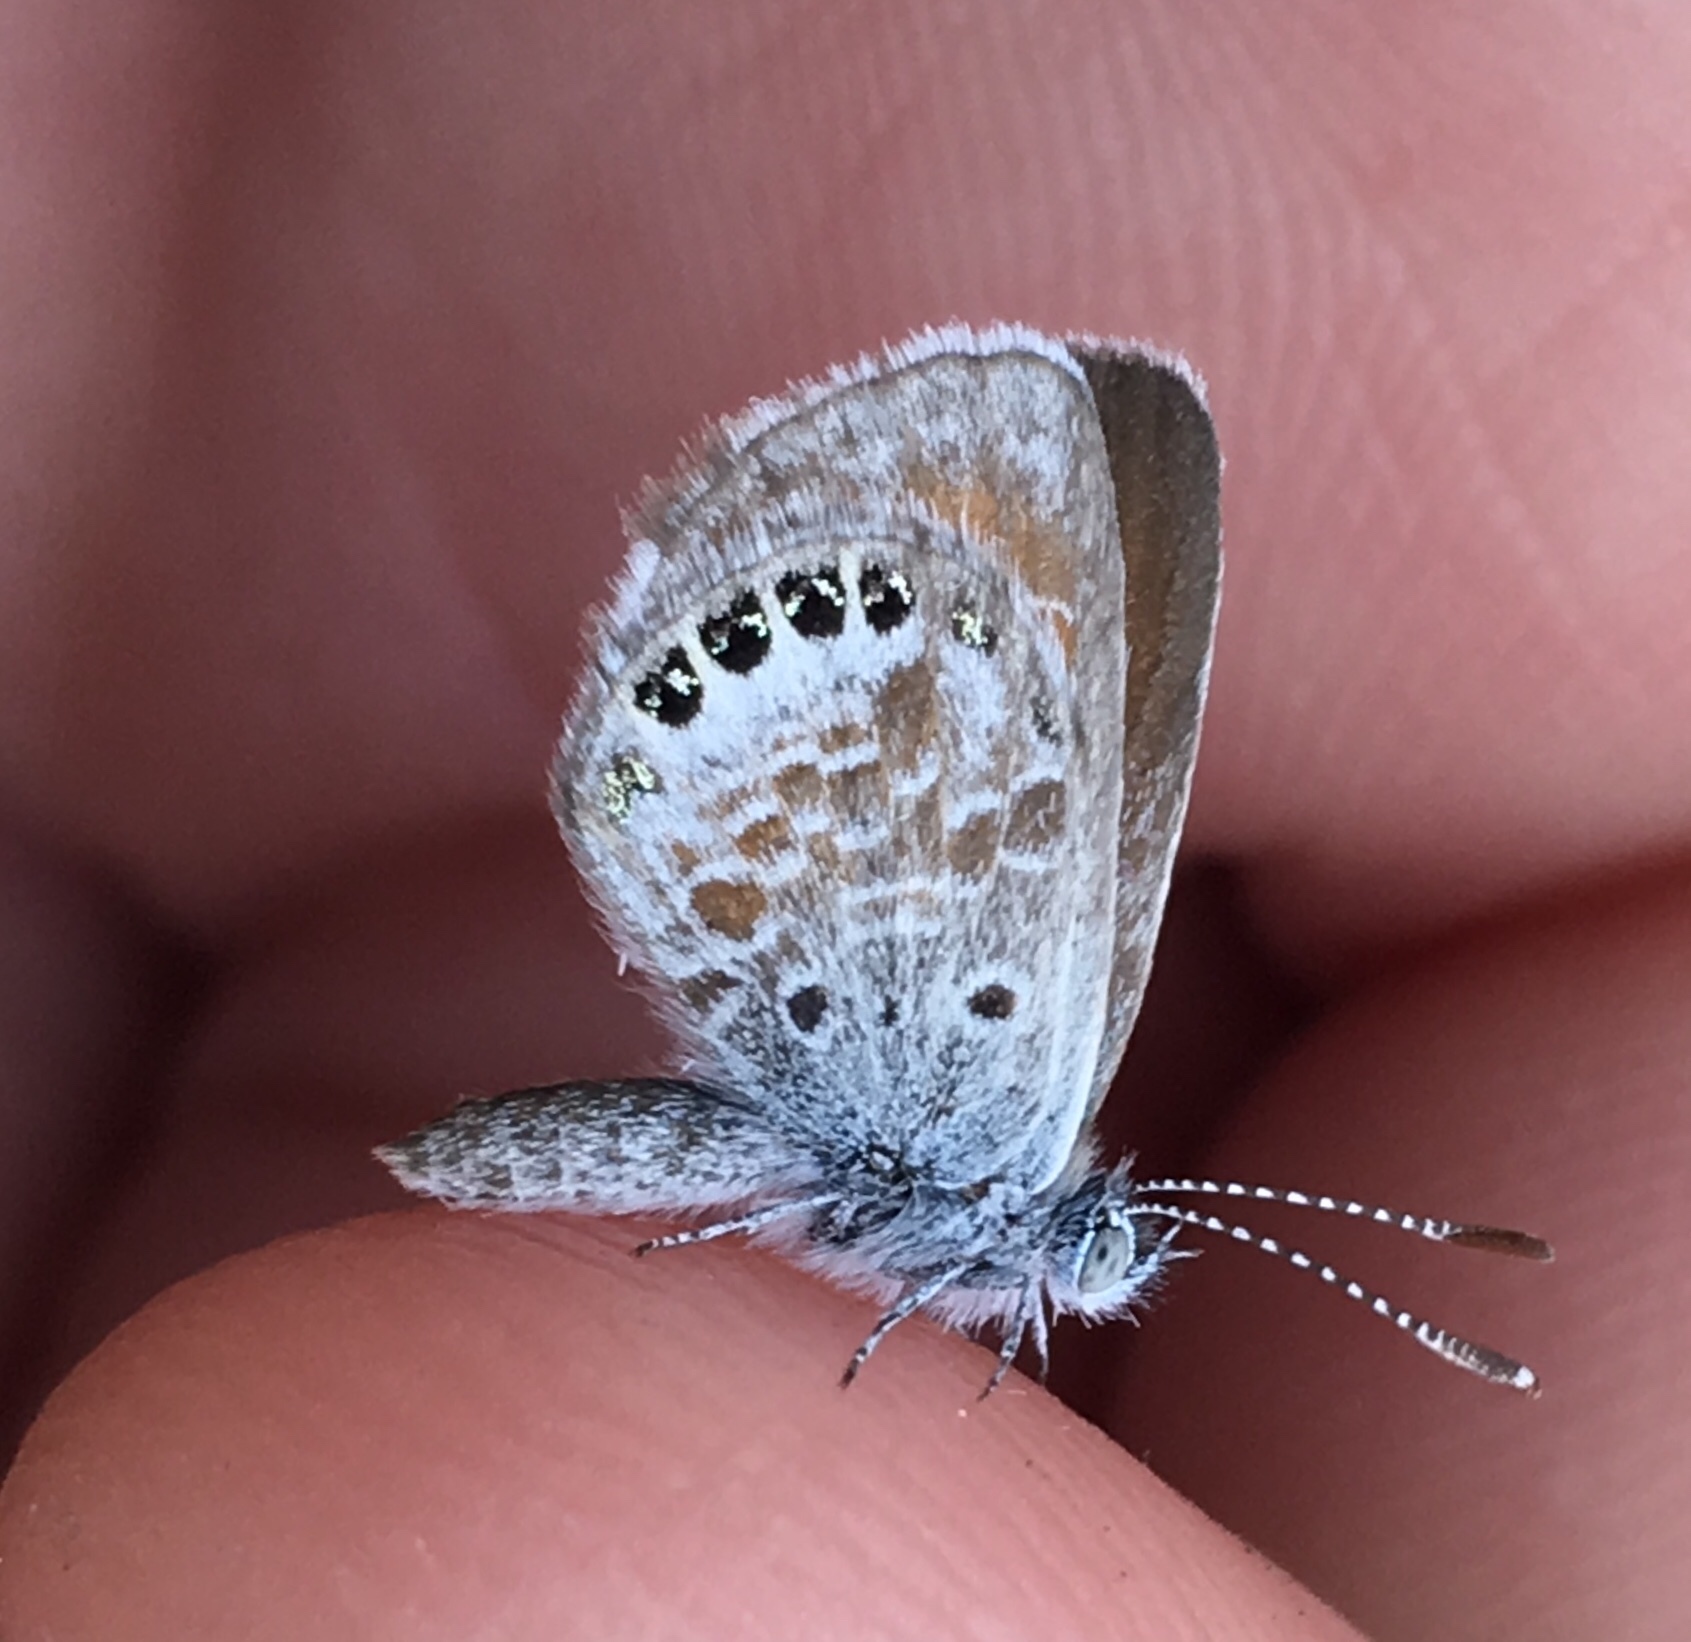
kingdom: Animalia
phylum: Arthropoda
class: Insecta
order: Lepidoptera
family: Lycaenidae
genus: Brephidium
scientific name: Brephidium exilis
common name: Pygmy blue
